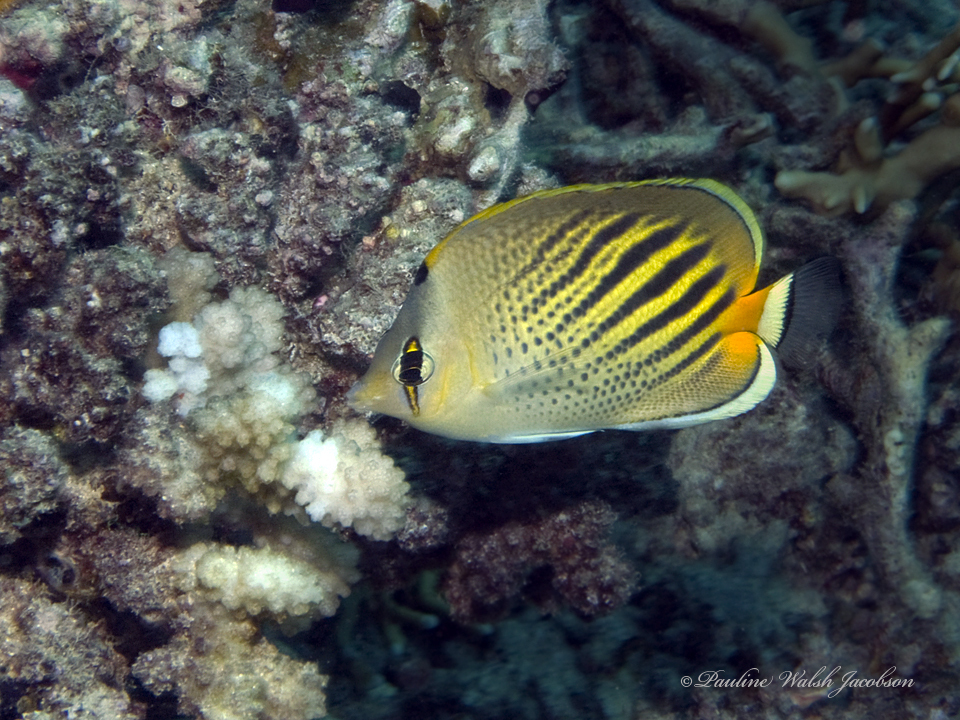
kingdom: Animalia
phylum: Chordata
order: Perciformes
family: Chaetodontidae
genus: Chaetodon
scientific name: Chaetodon pelewensis
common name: Dot-and-dash butterflyfish
